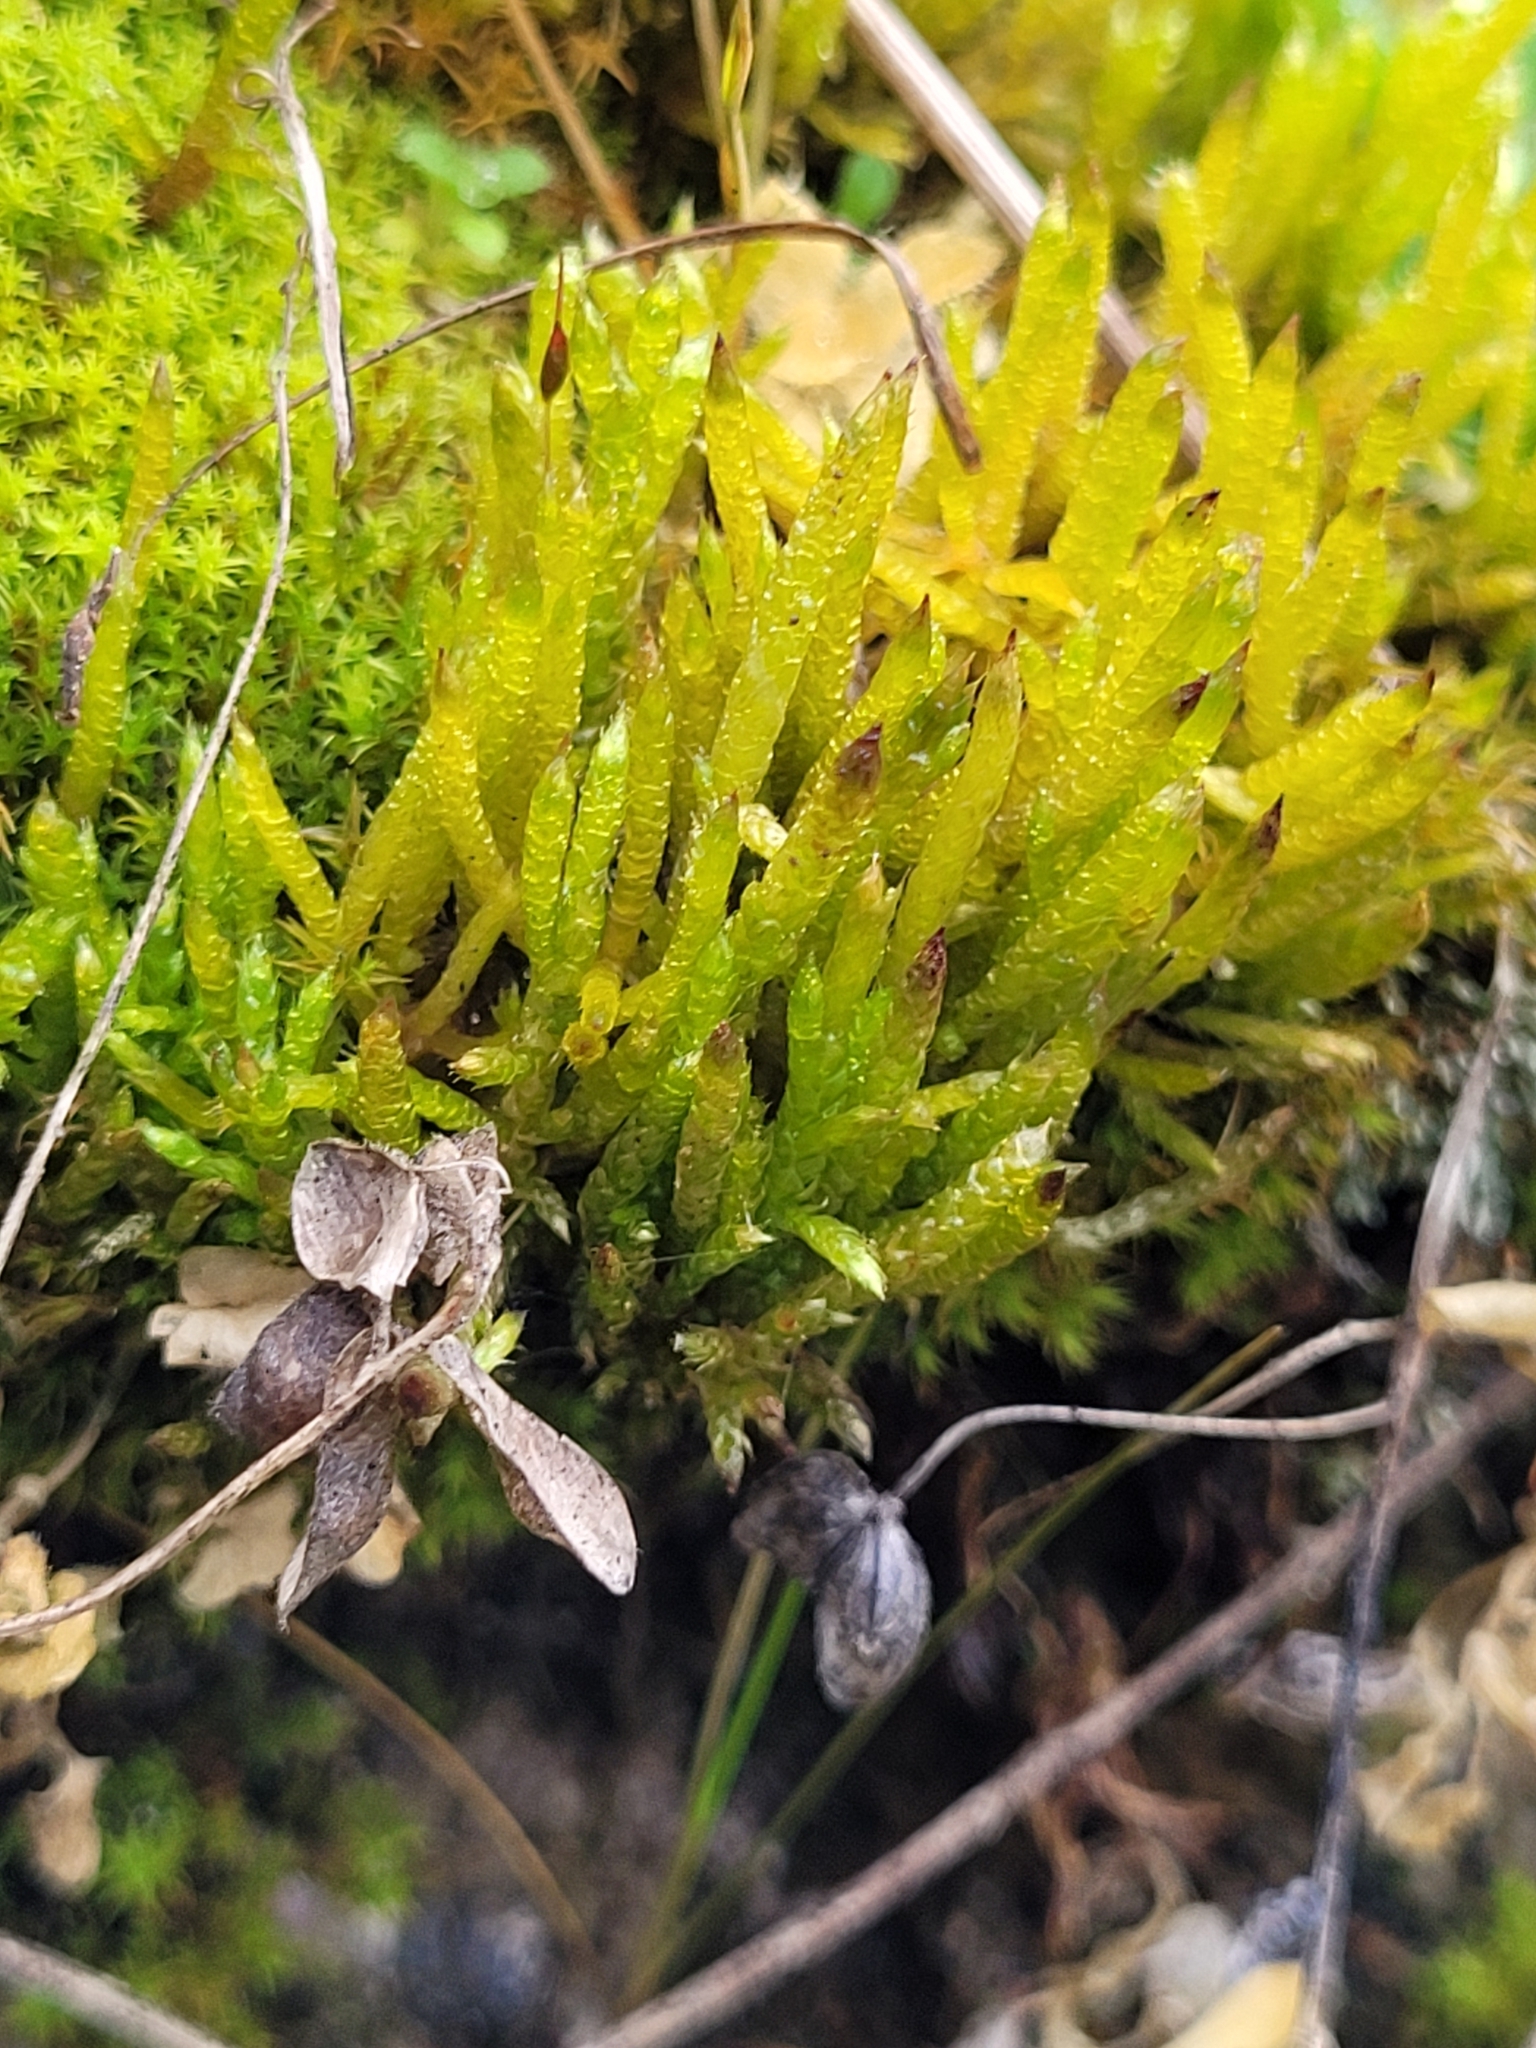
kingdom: Plantae
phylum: Bryophyta
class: Bryopsida
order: Hypnales
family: Brachytheciaceae
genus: Brachythecium
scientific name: Brachythecium albicans
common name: Whitish ragged moss
